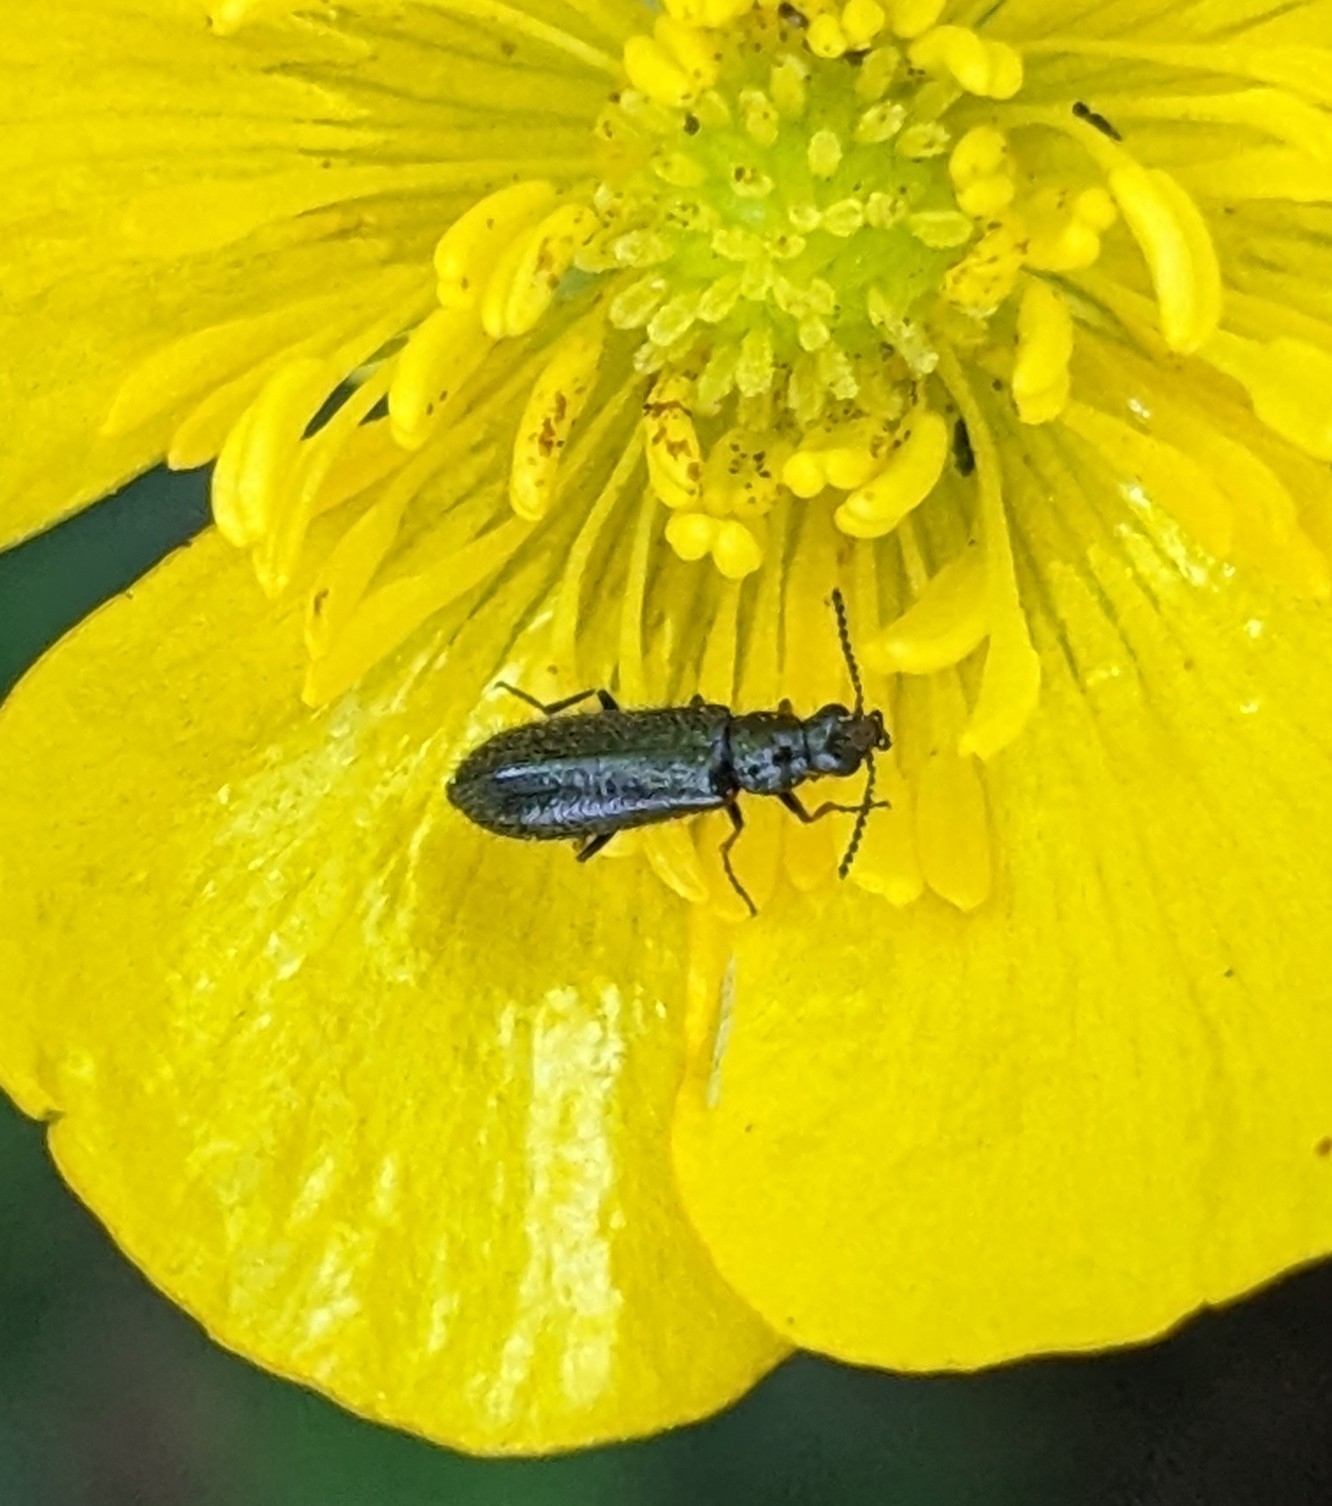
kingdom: Animalia
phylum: Arthropoda
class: Insecta
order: Coleoptera
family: Melyridae
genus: Dasytes
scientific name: Dasytes plumbeus
